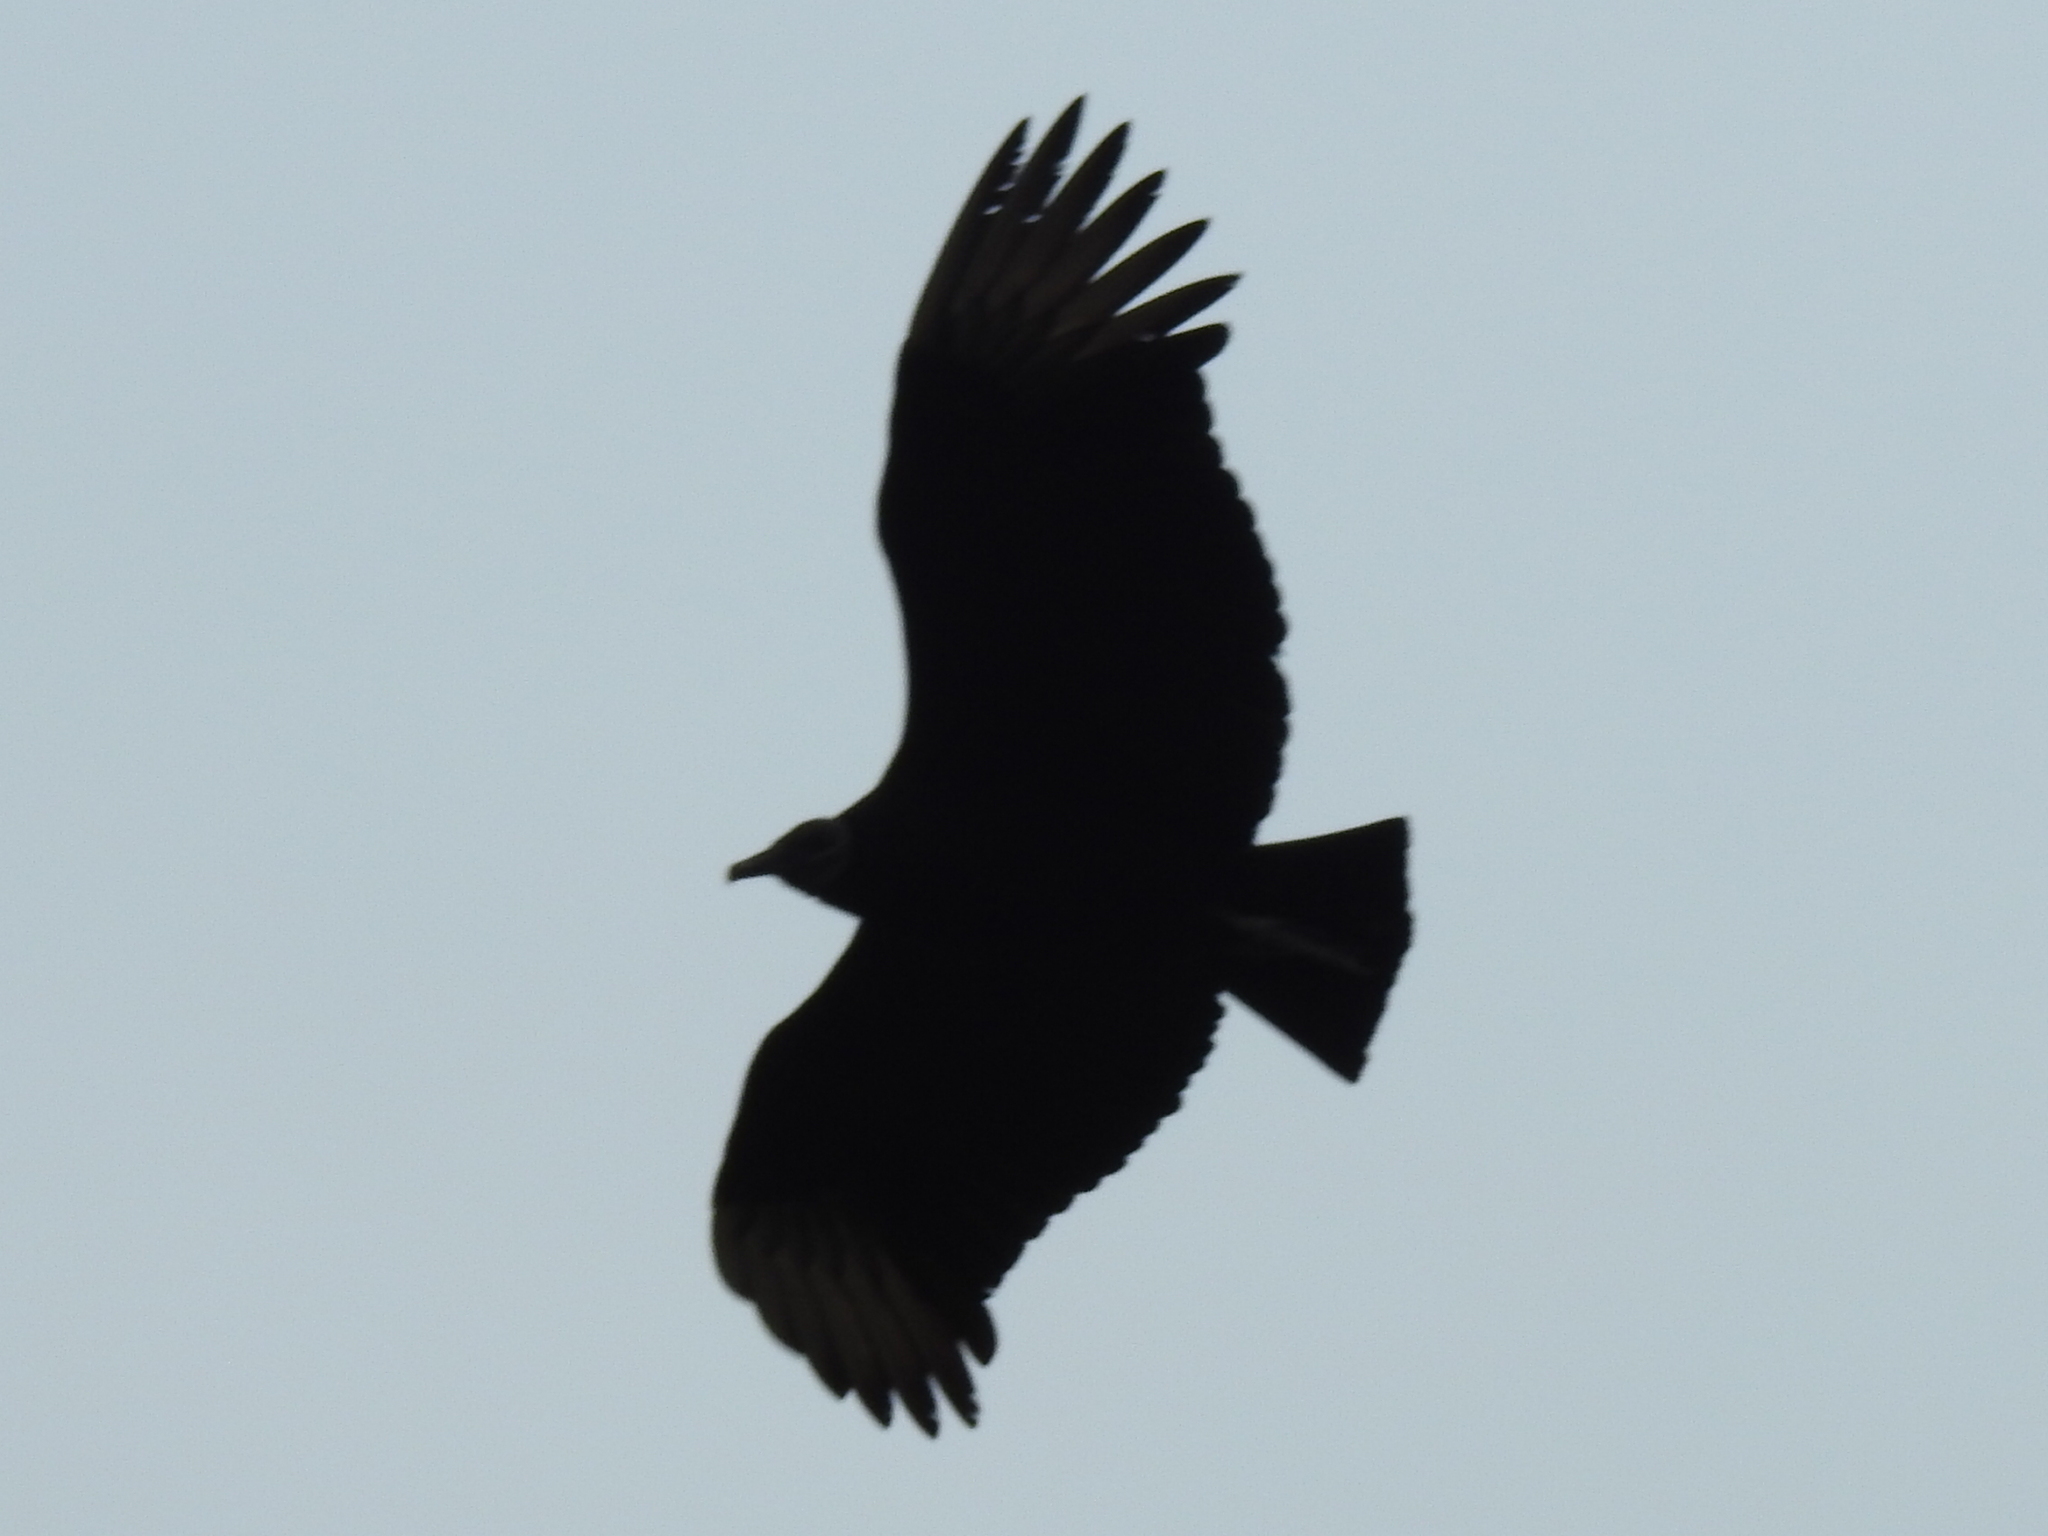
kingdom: Animalia
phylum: Chordata
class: Aves
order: Accipitriformes
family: Cathartidae
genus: Coragyps
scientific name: Coragyps atratus
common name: Black vulture
